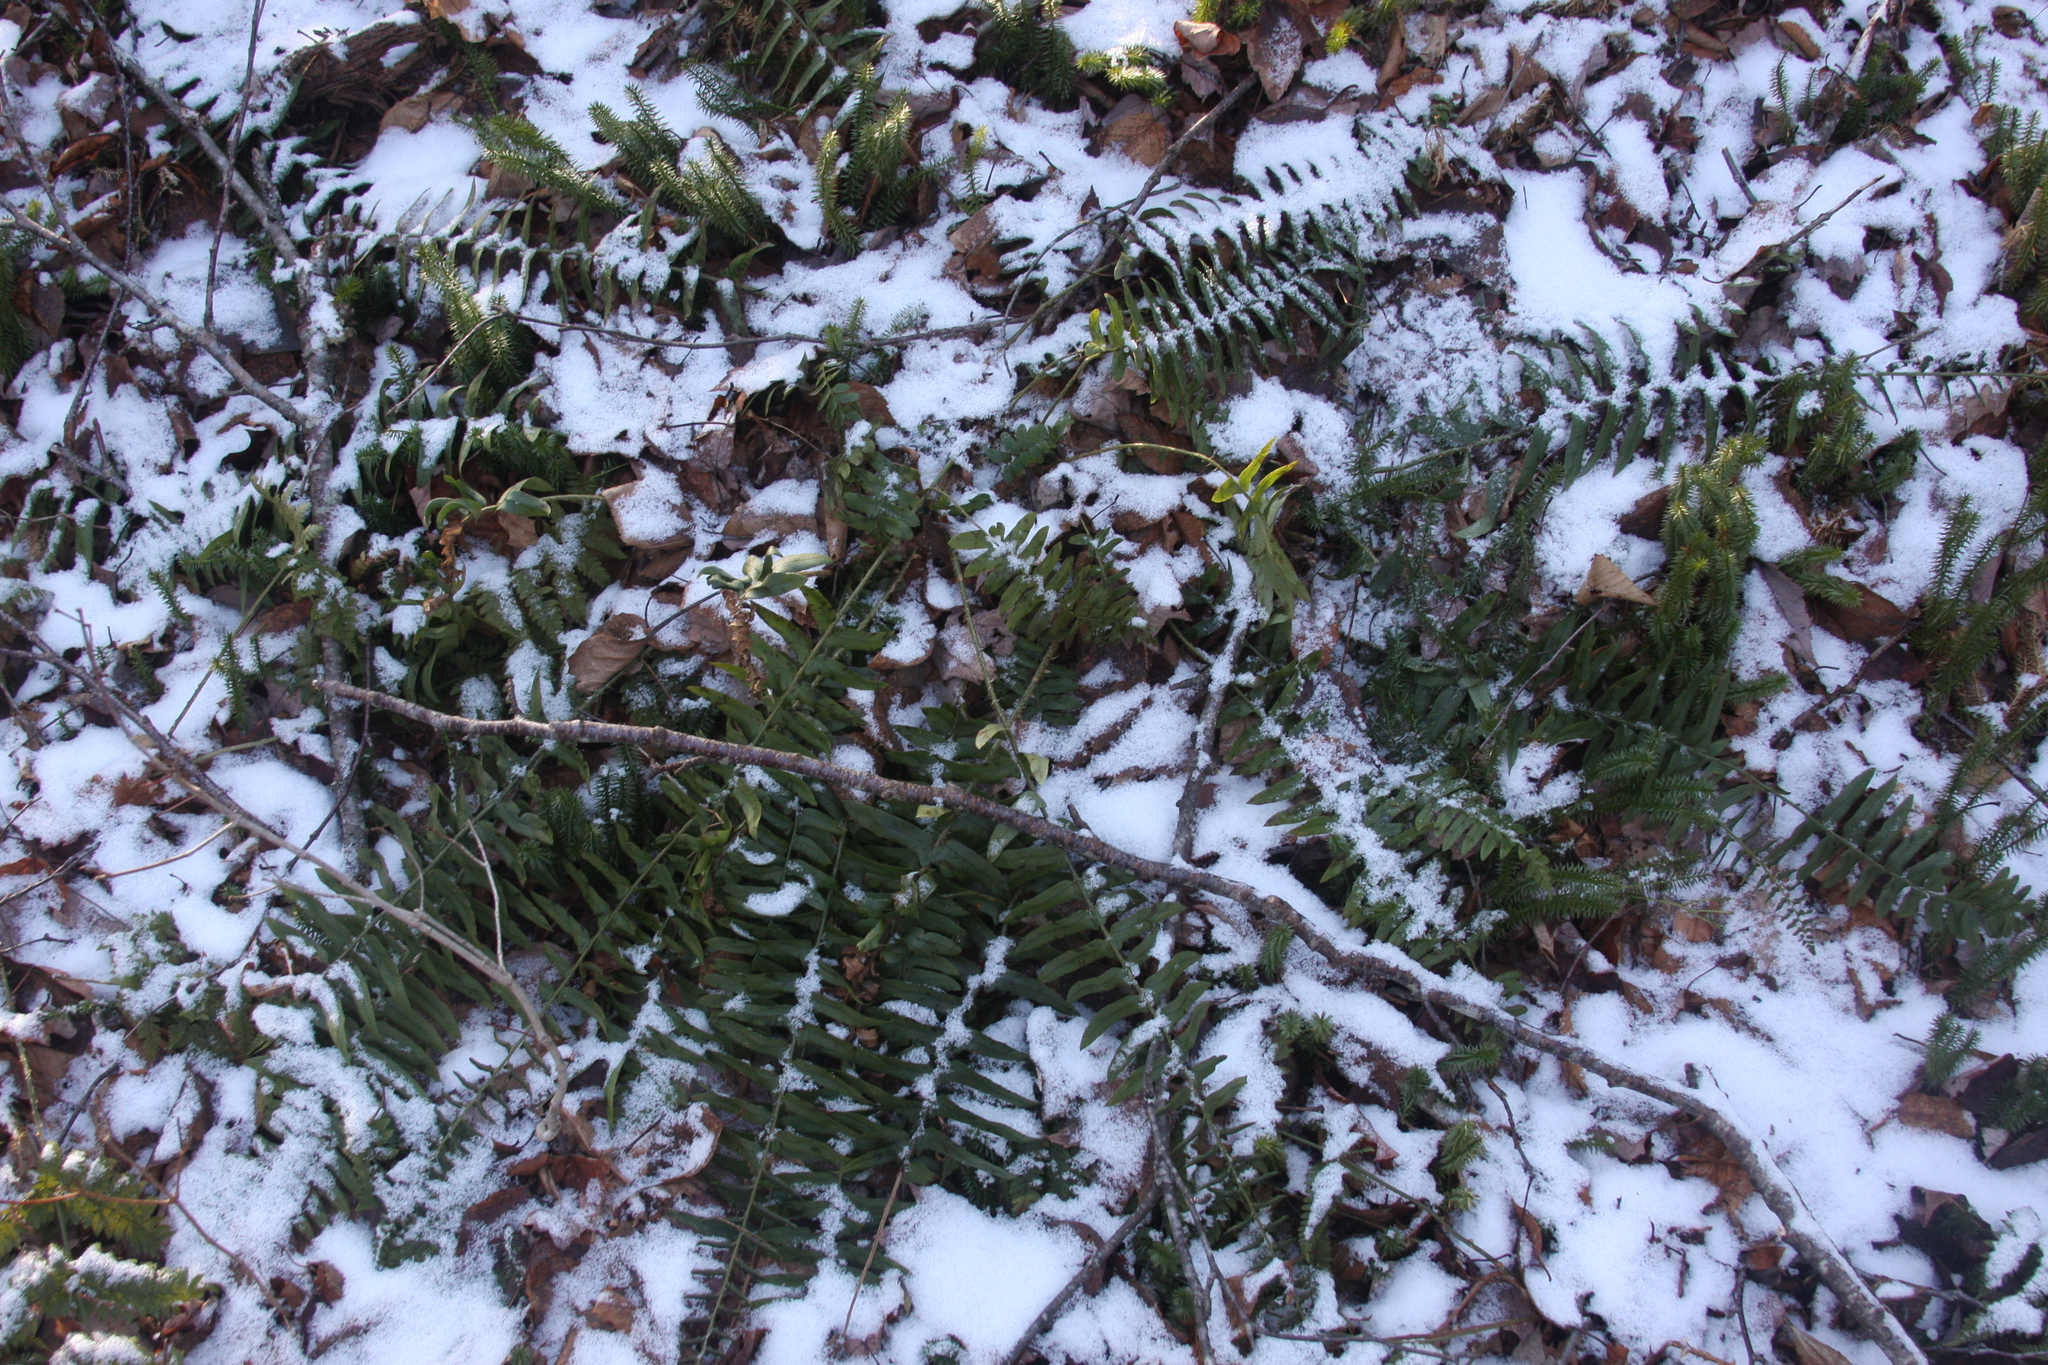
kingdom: Plantae
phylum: Tracheophyta
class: Polypodiopsida
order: Polypodiales
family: Dryopteridaceae
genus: Polystichum
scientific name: Polystichum acrostichoides
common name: Christmas fern
